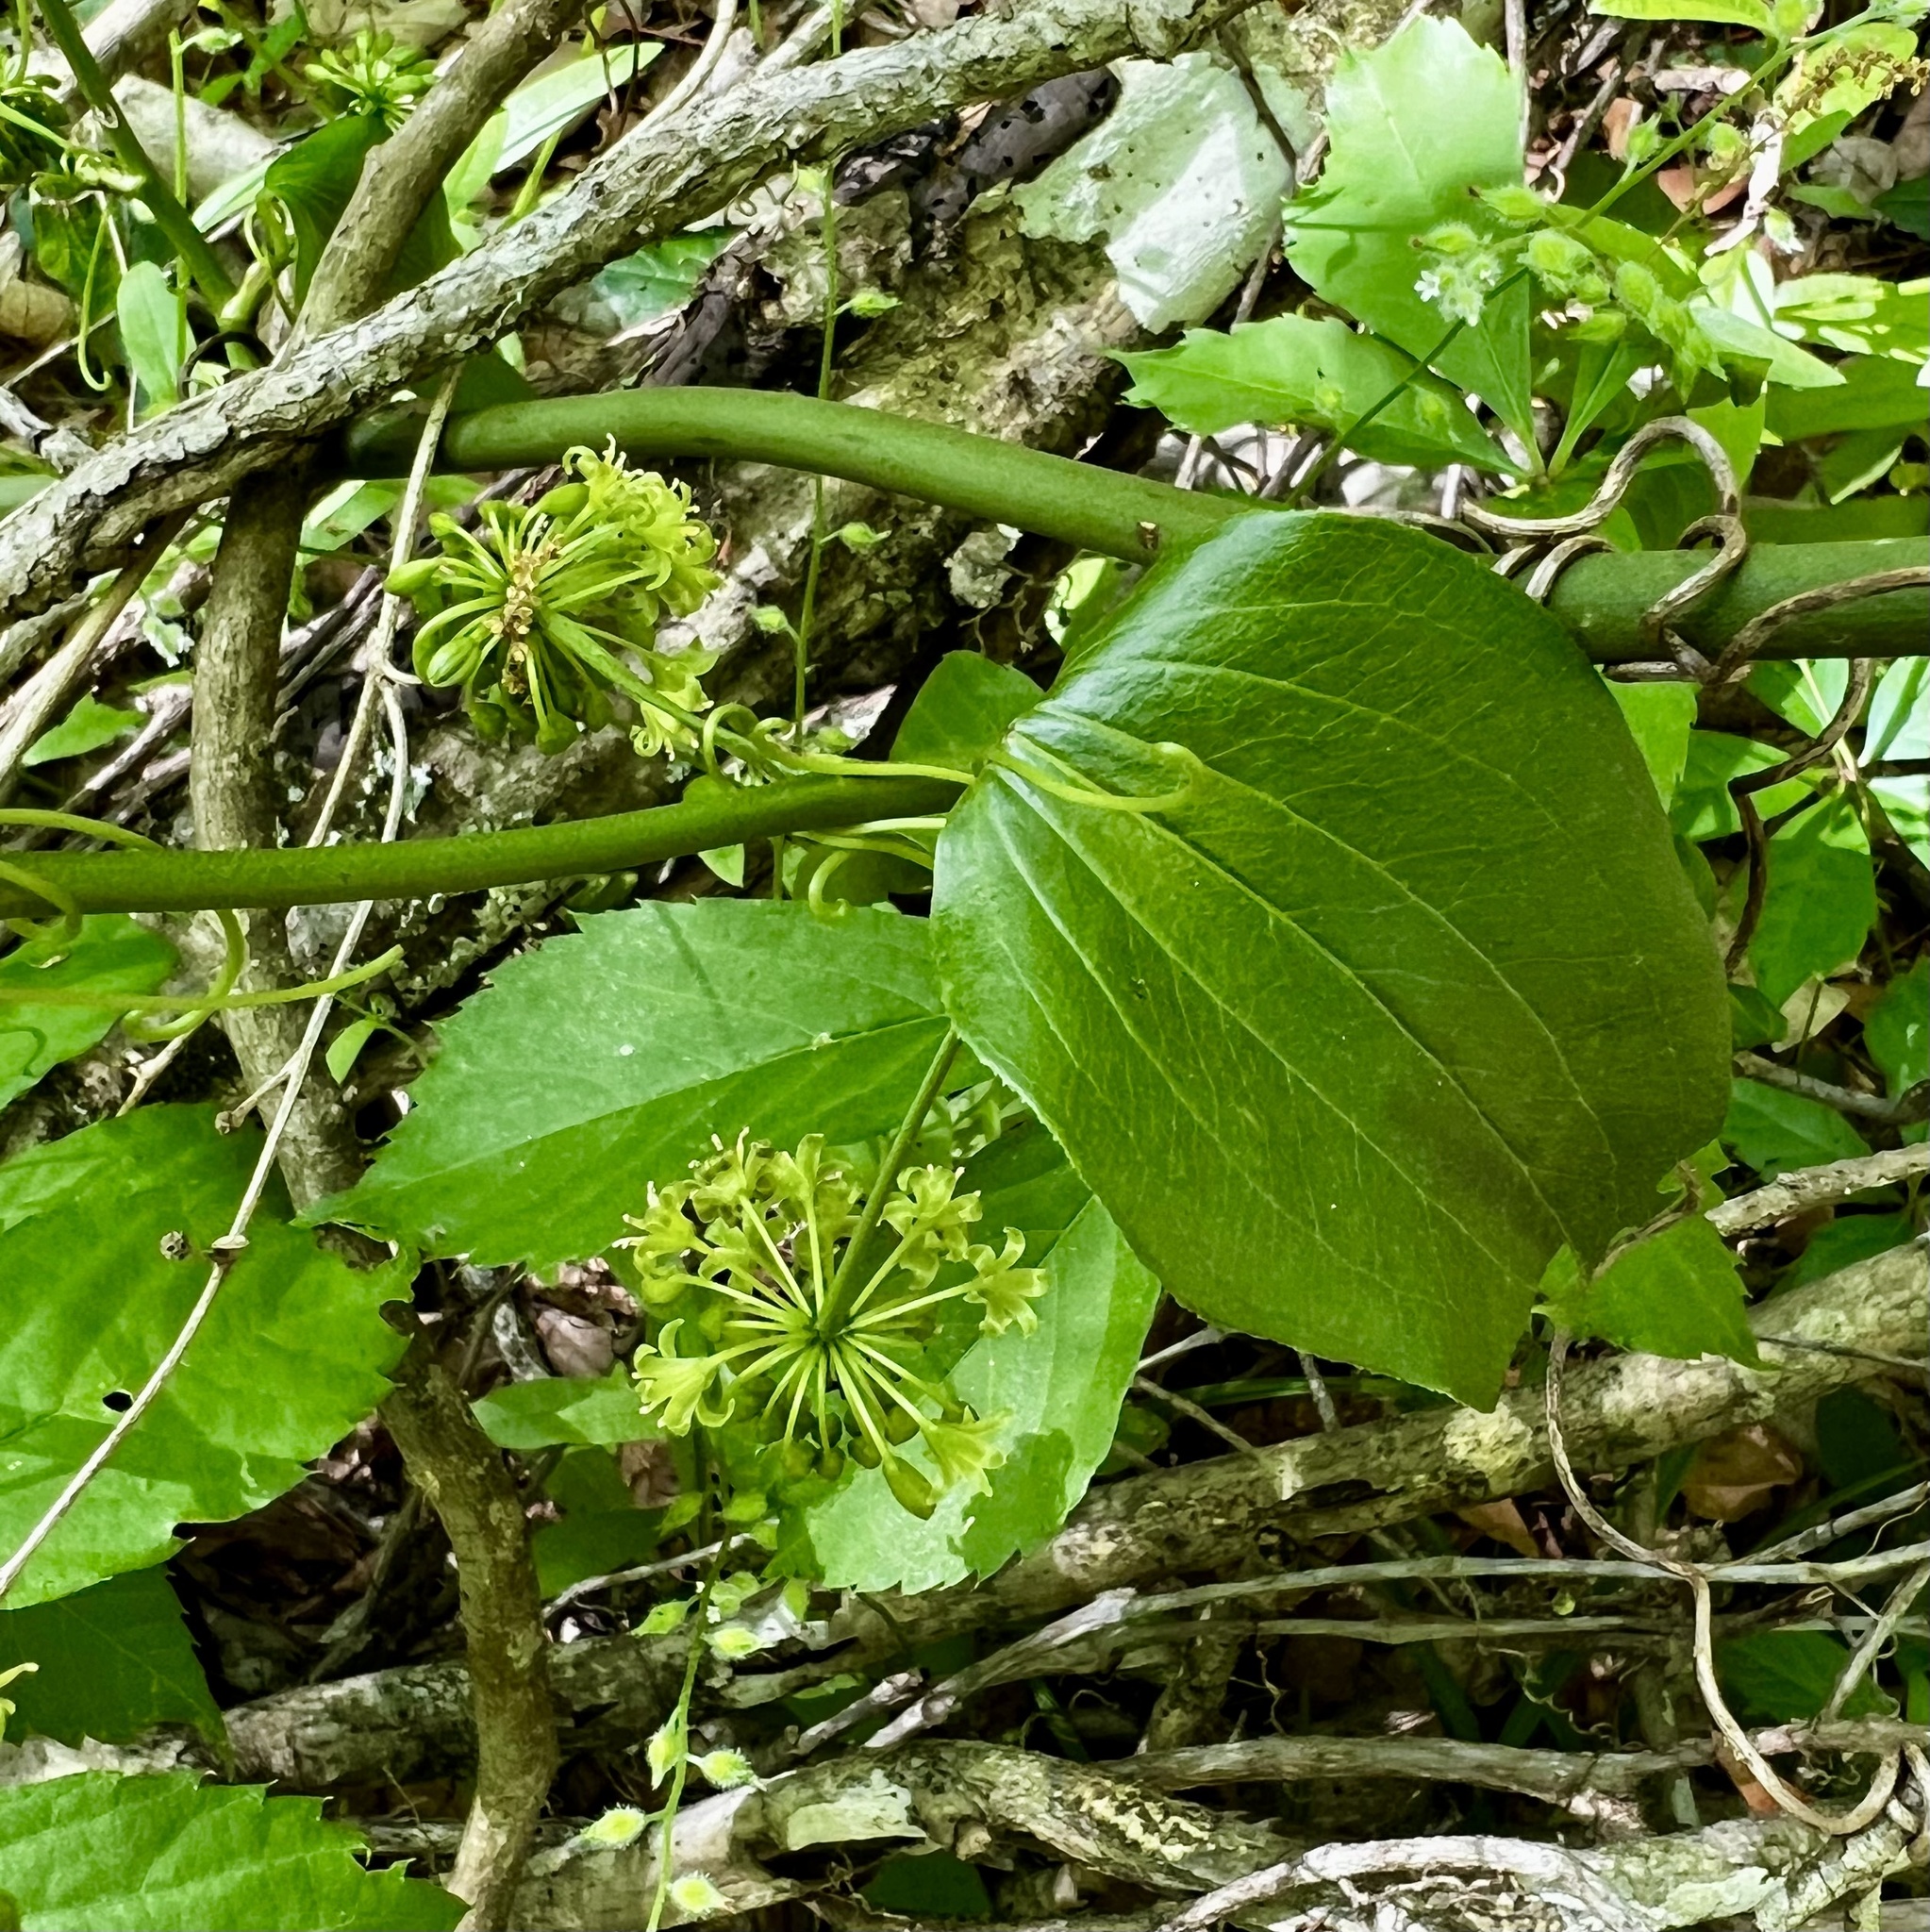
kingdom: Plantae
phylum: Tracheophyta
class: Liliopsida
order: Liliales
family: Smilacaceae
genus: Smilax
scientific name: Smilax tamnoides
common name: Hellfetter
